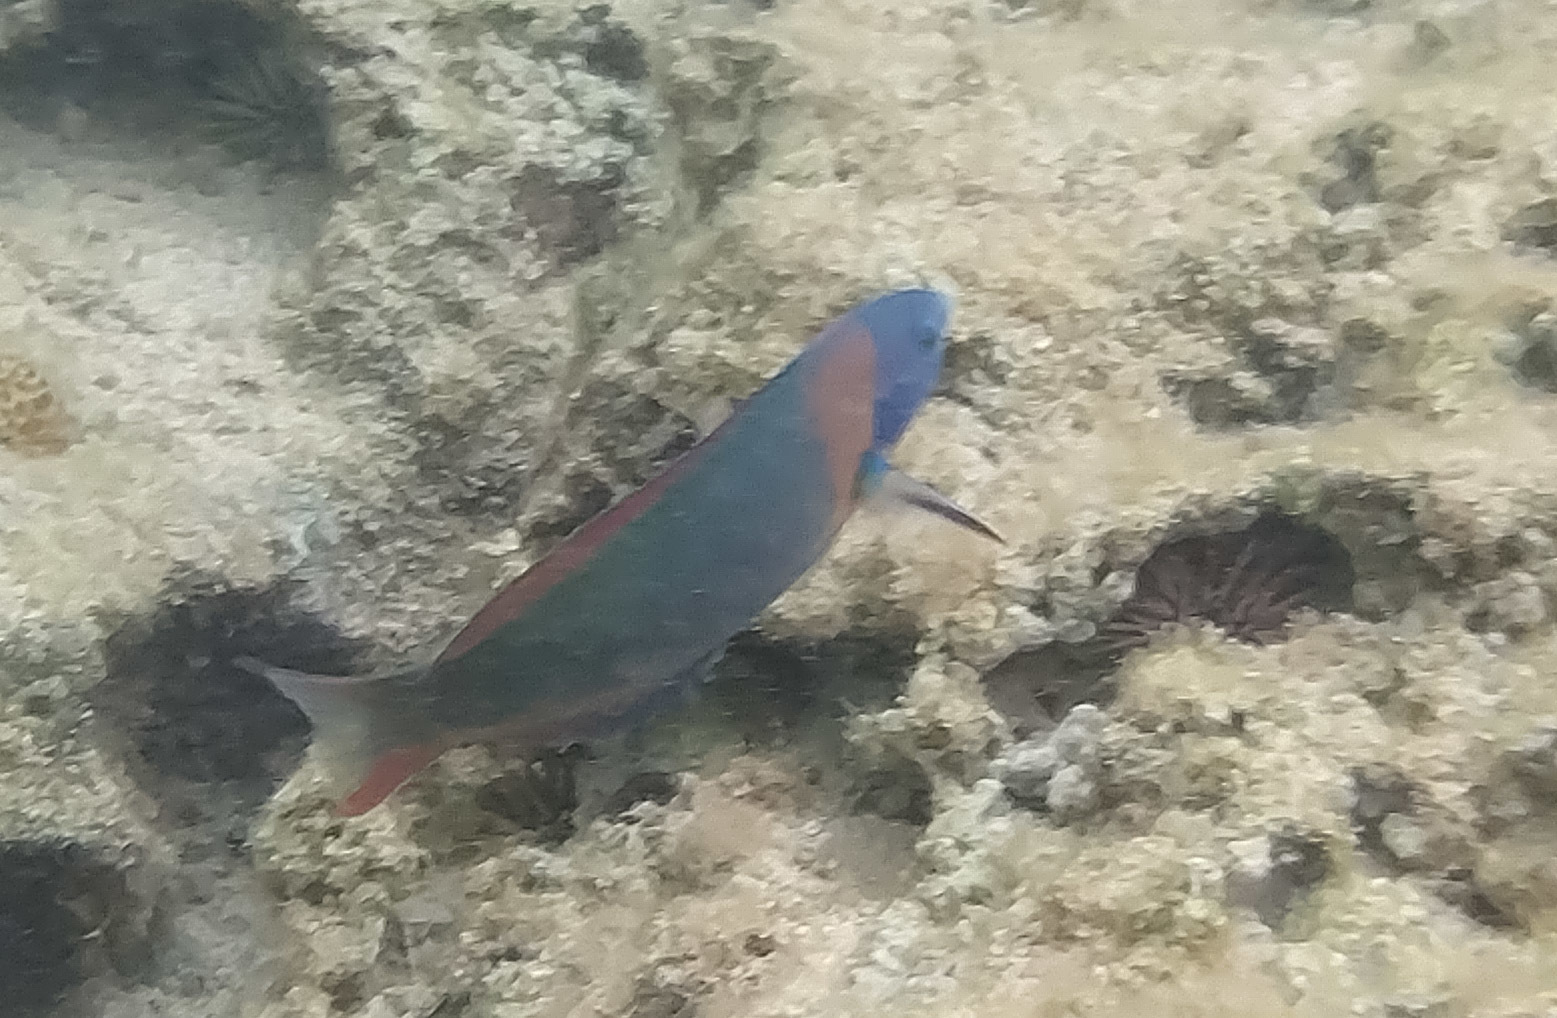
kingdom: Animalia
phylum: Chordata
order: Perciformes
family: Labridae
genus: Thalassoma
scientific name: Thalassoma duperrey
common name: Saddle wrasse
